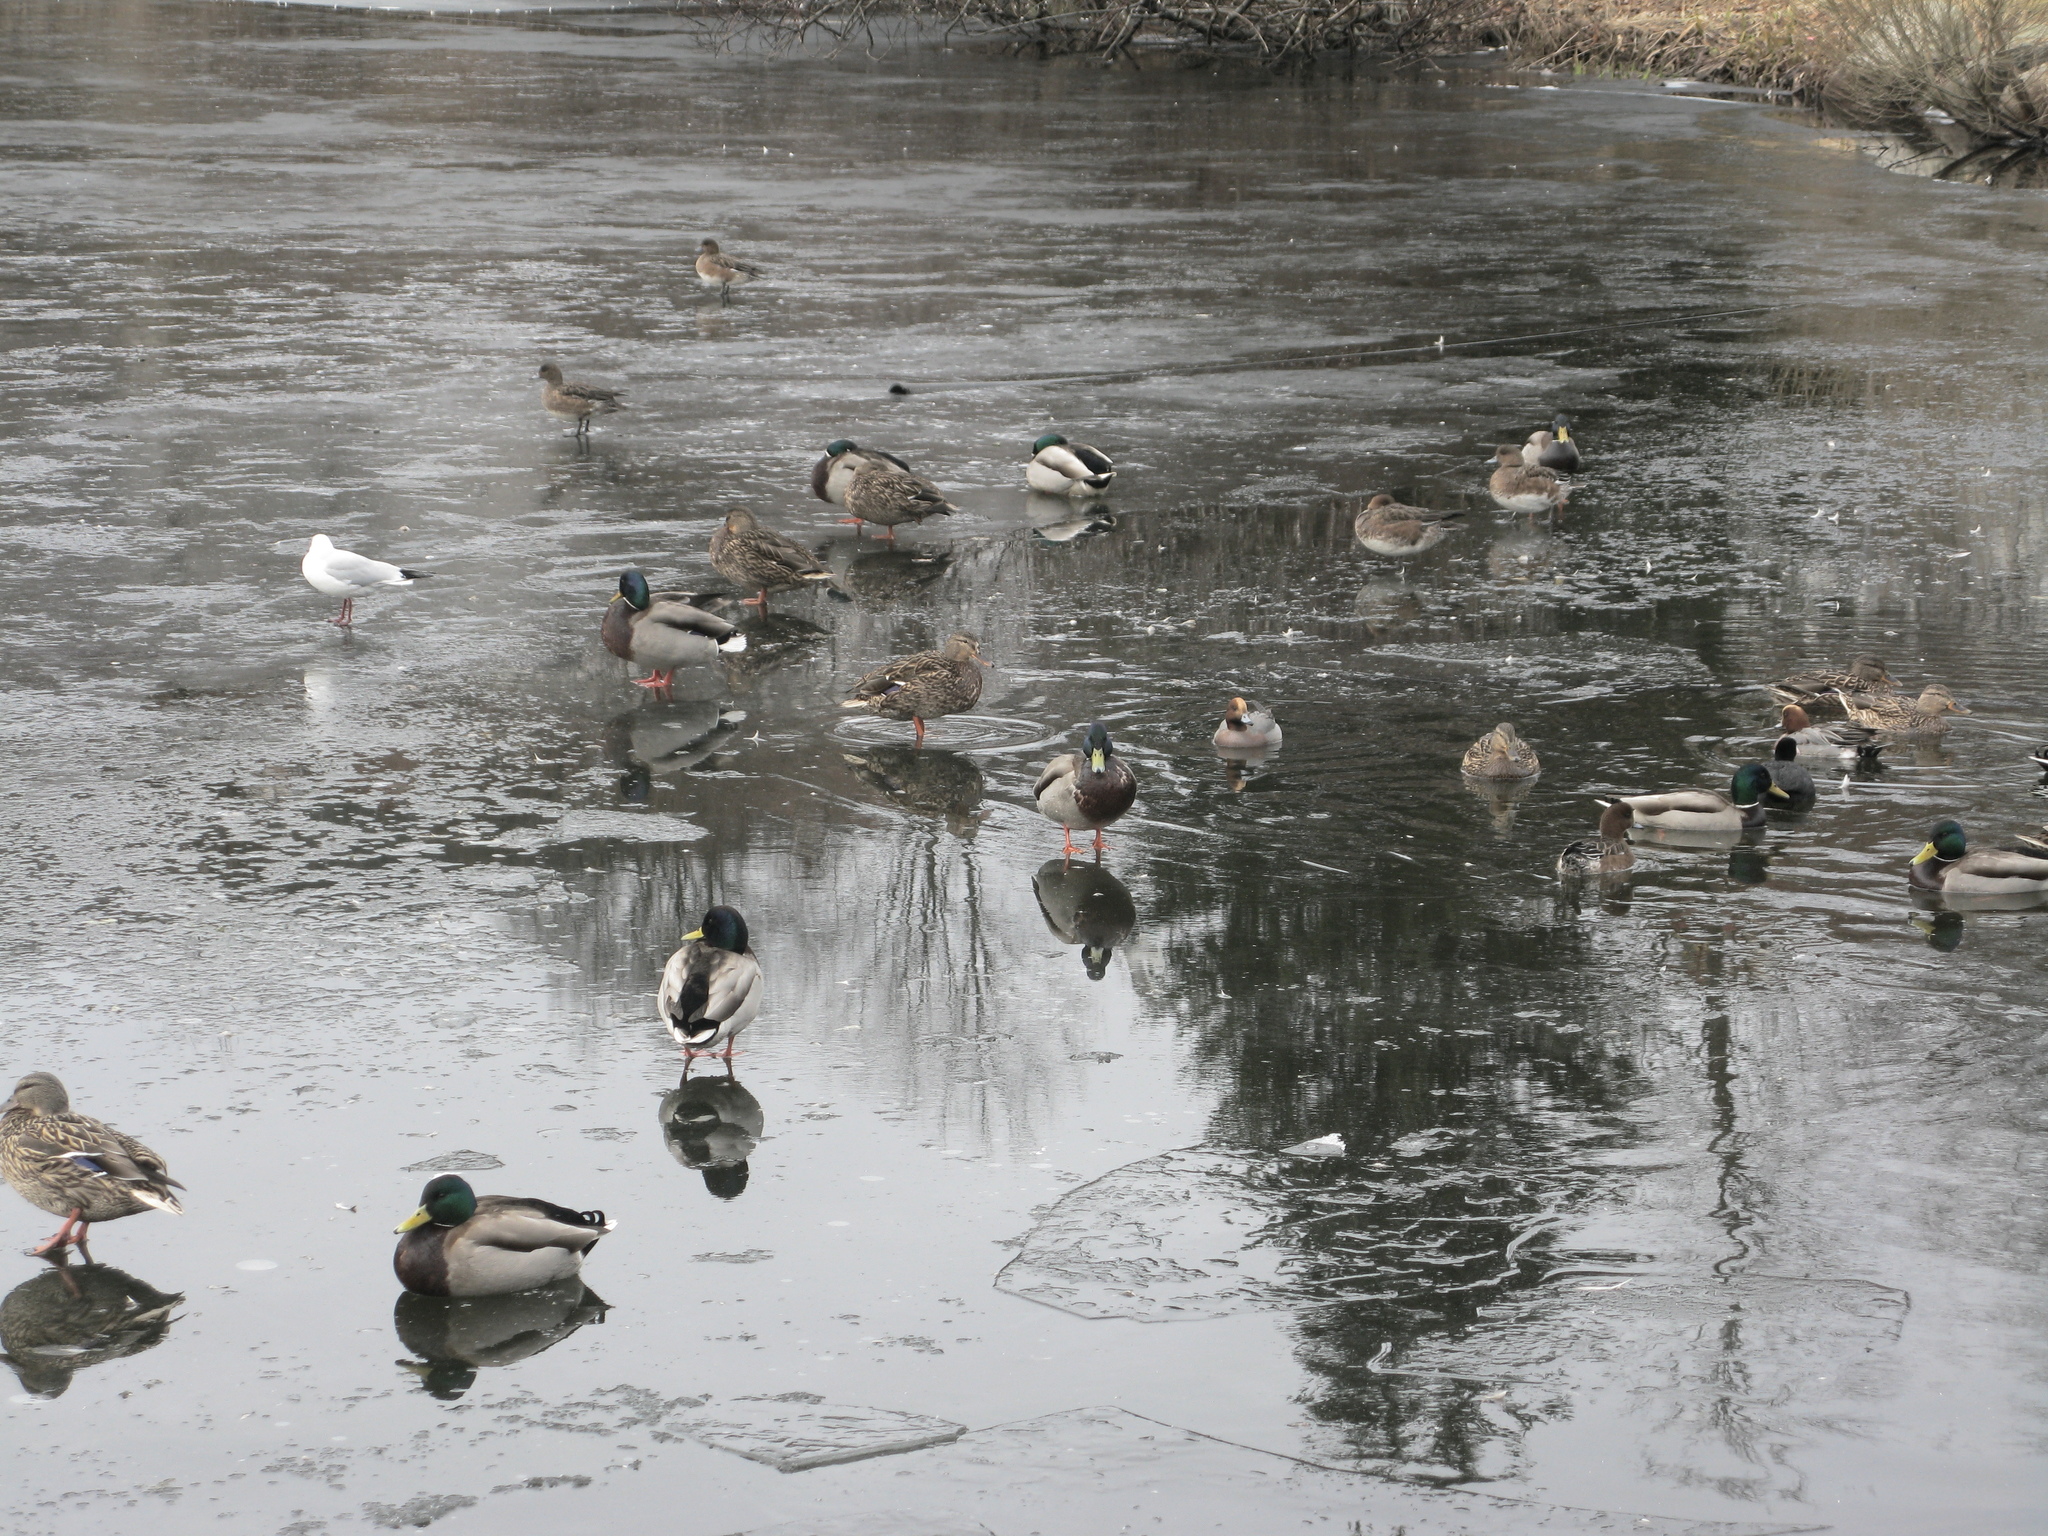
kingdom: Animalia
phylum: Chordata
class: Aves
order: Anseriformes
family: Anatidae
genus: Anas
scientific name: Anas platyrhynchos
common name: Mallard
